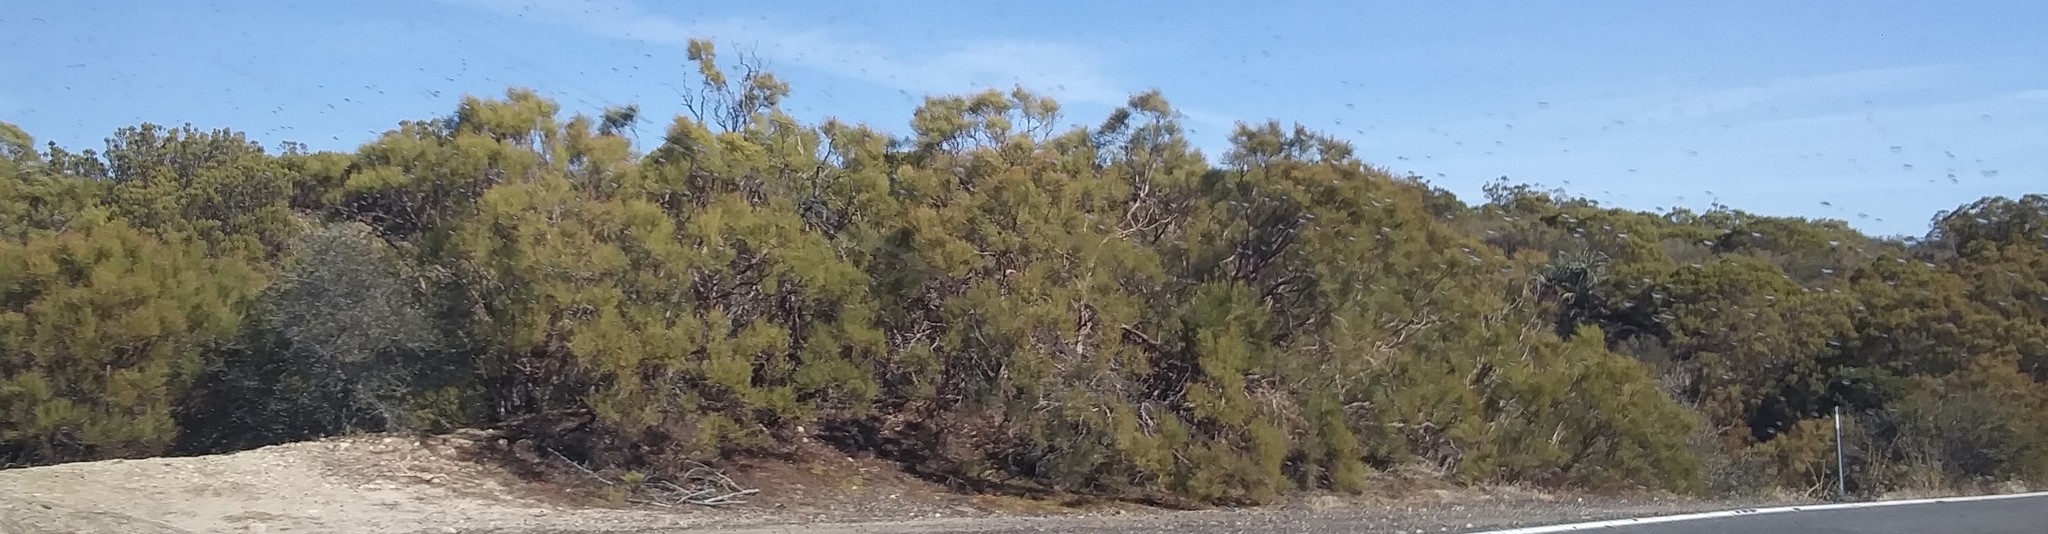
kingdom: Plantae
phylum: Tracheophyta
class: Magnoliopsida
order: Rosales
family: Rosaceae
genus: Adenostoma
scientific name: Adenostoma sparsifolium
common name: Red shank
